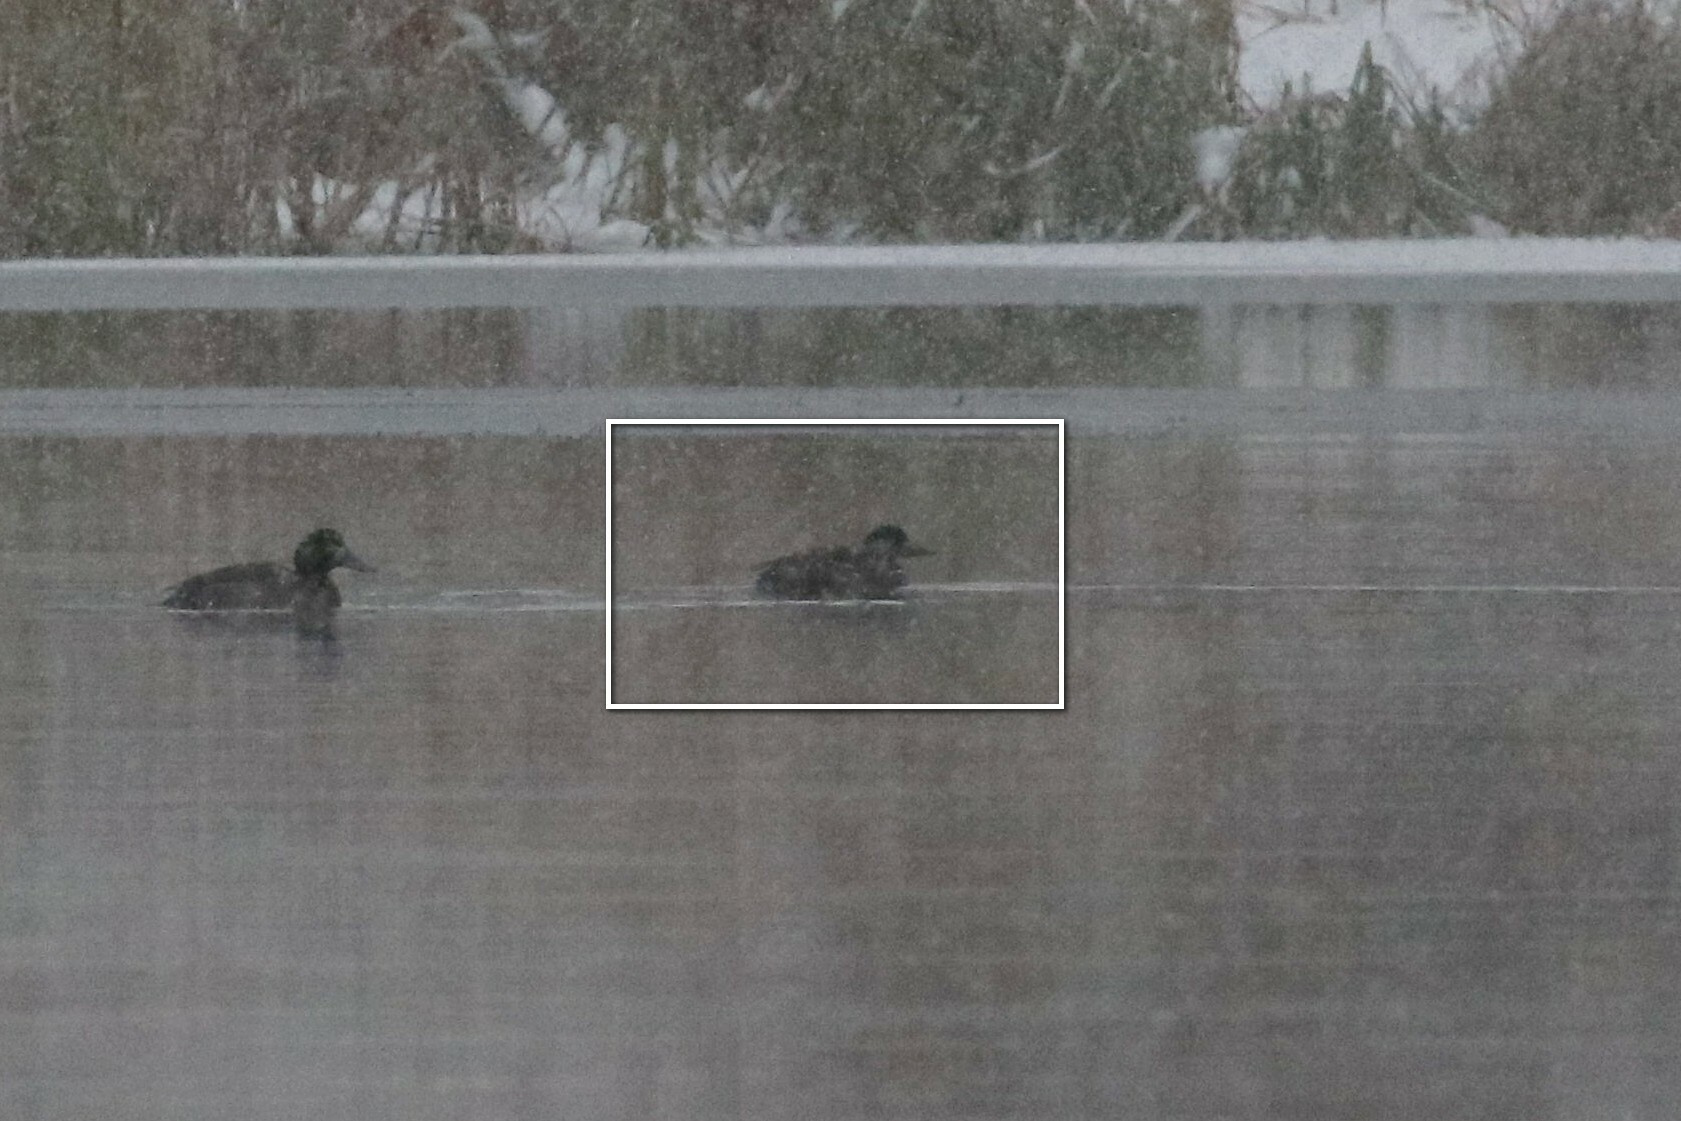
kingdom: Animalia
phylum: Chordata
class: Aves
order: Anseriformes
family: Anatidae
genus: Melanitta
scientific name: Melanitta nigra
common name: Common scoter
